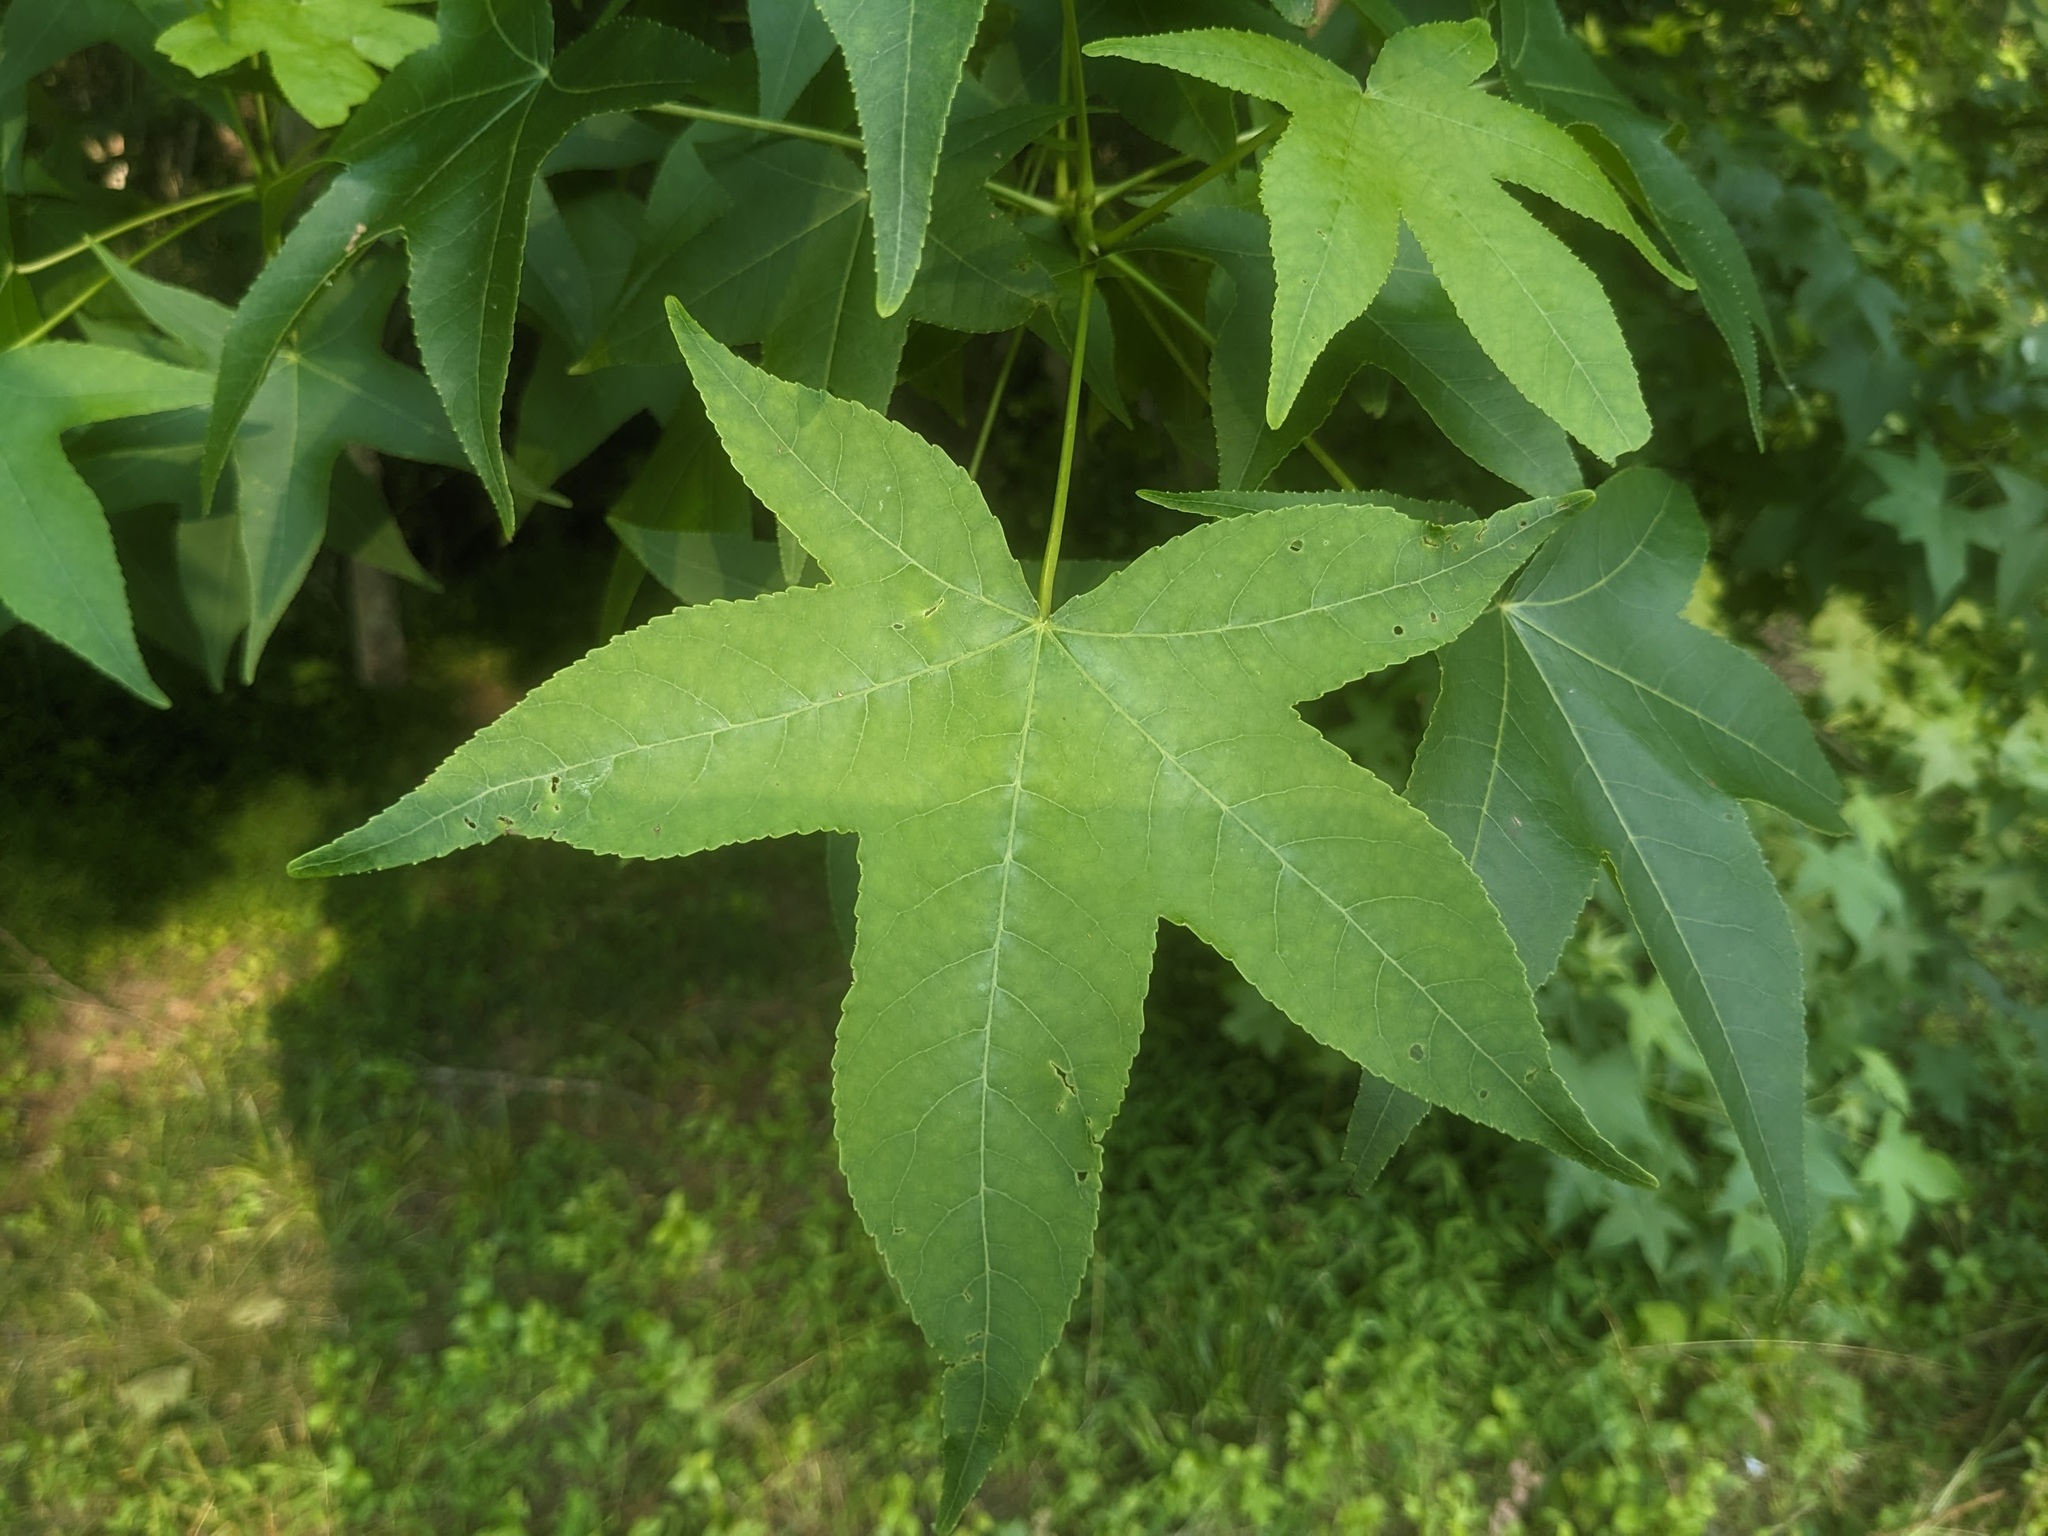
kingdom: Plantae
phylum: Tracheophyta
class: Magnoliopsida
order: Saxifragales
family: Altingiaceae
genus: Liquidambar
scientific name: Liquidambar styraciflua
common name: Sweet gum
